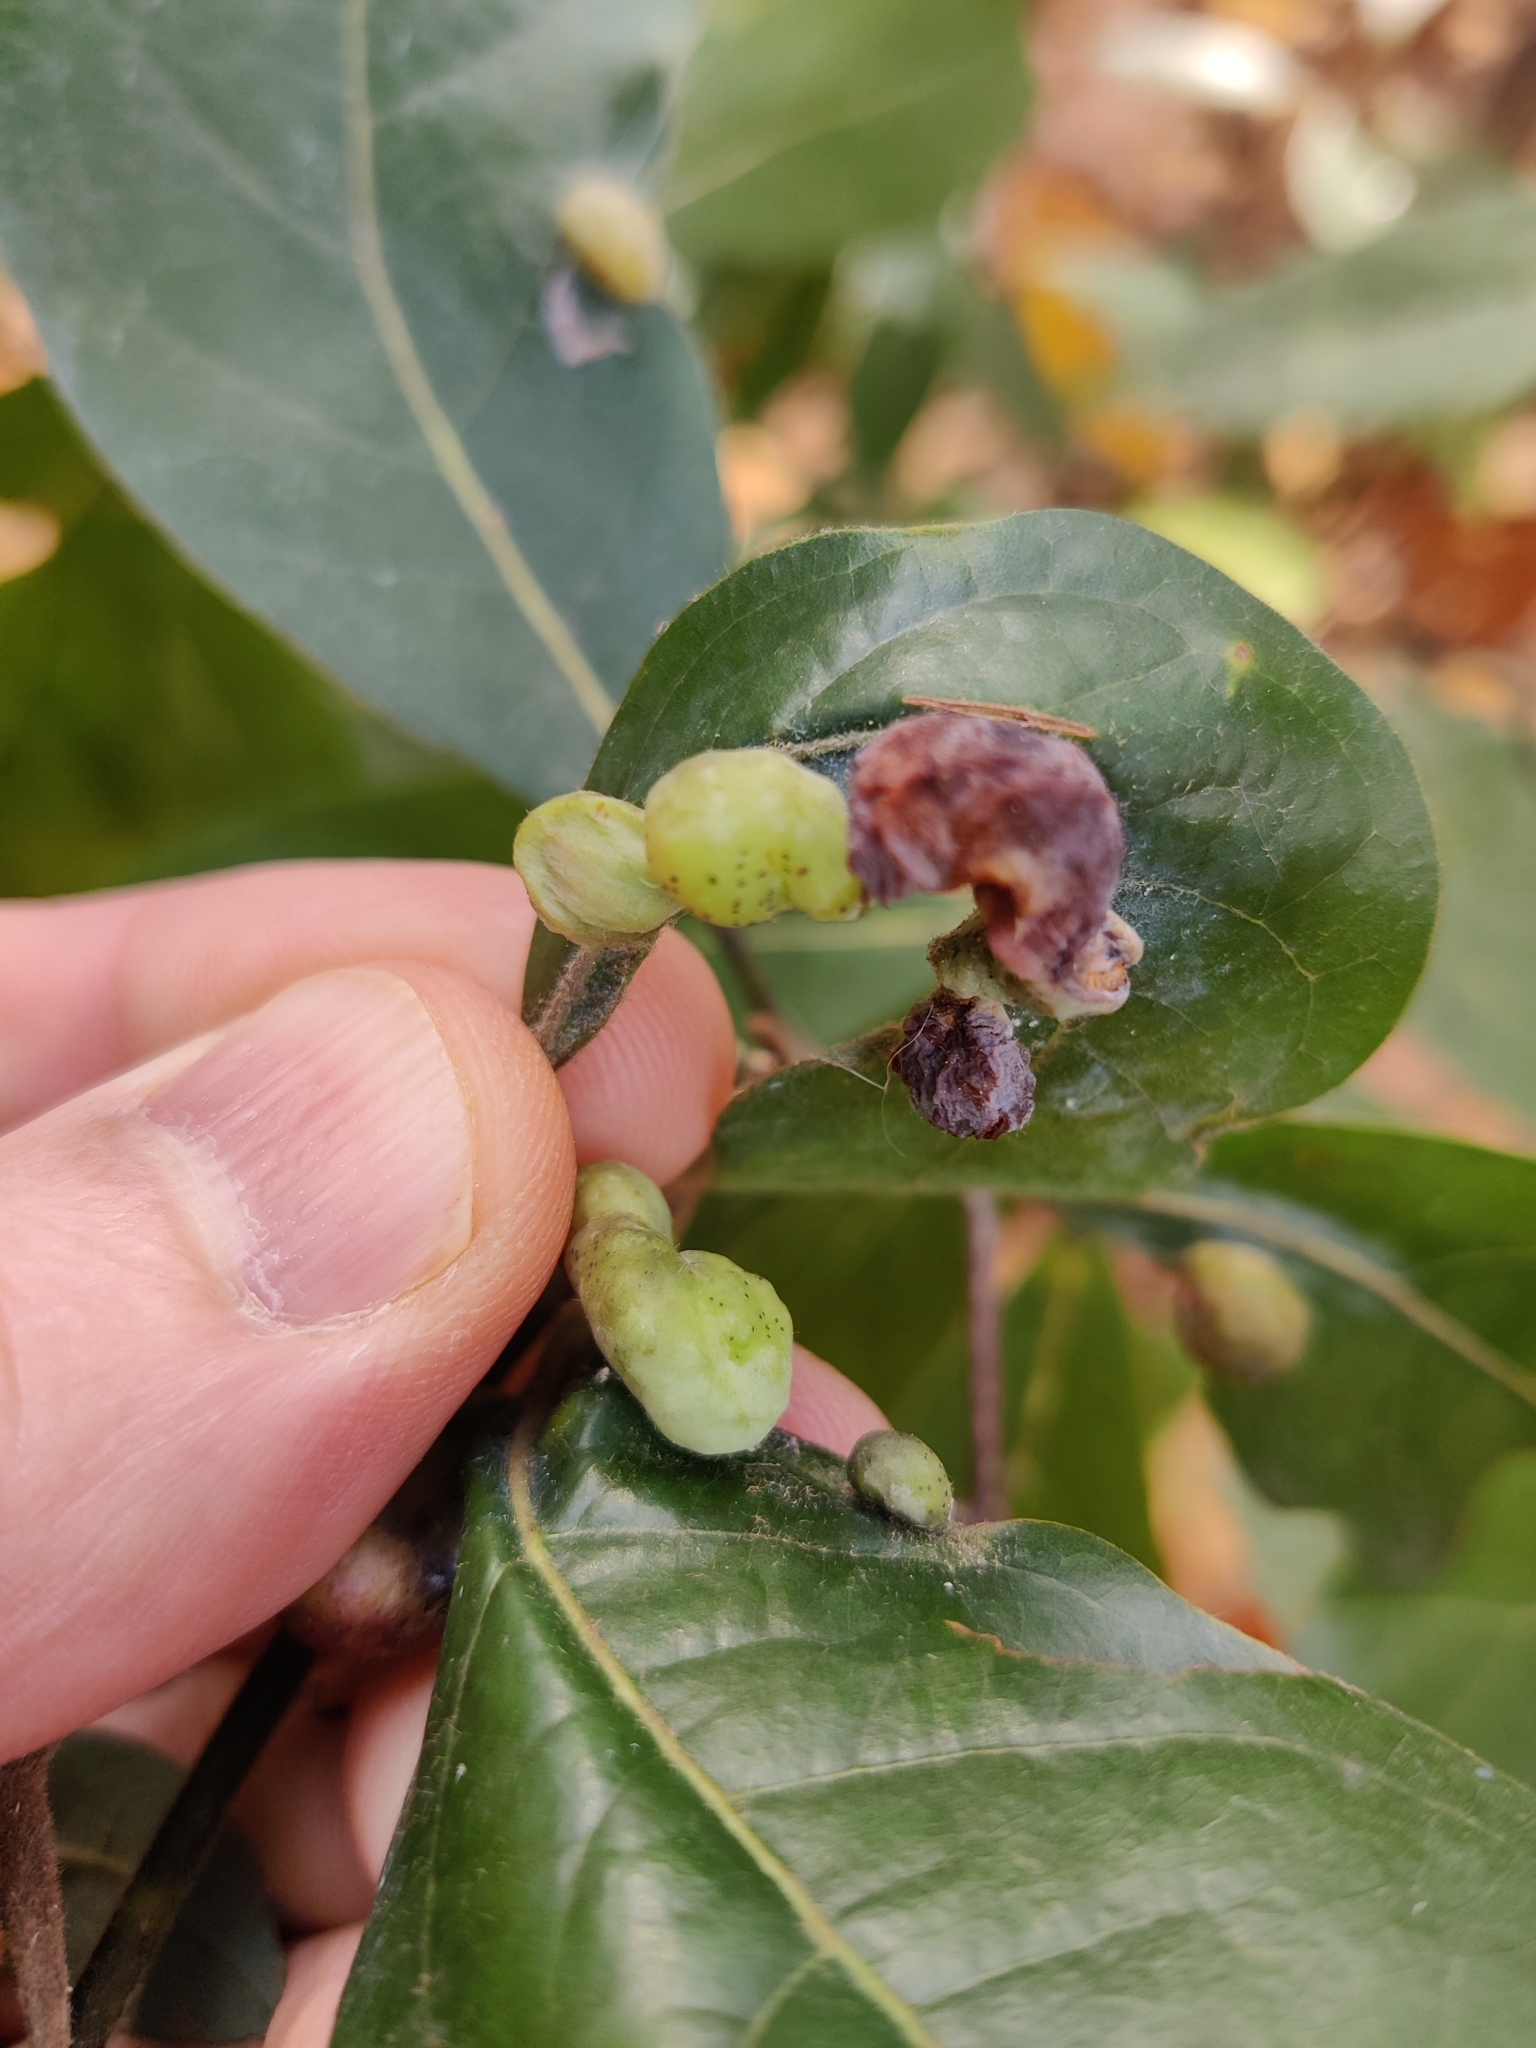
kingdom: Animalia
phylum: Arthropoda
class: Insecta
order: Hemiptera
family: Triozidae
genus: Trioza
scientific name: Trioza magnoliae
